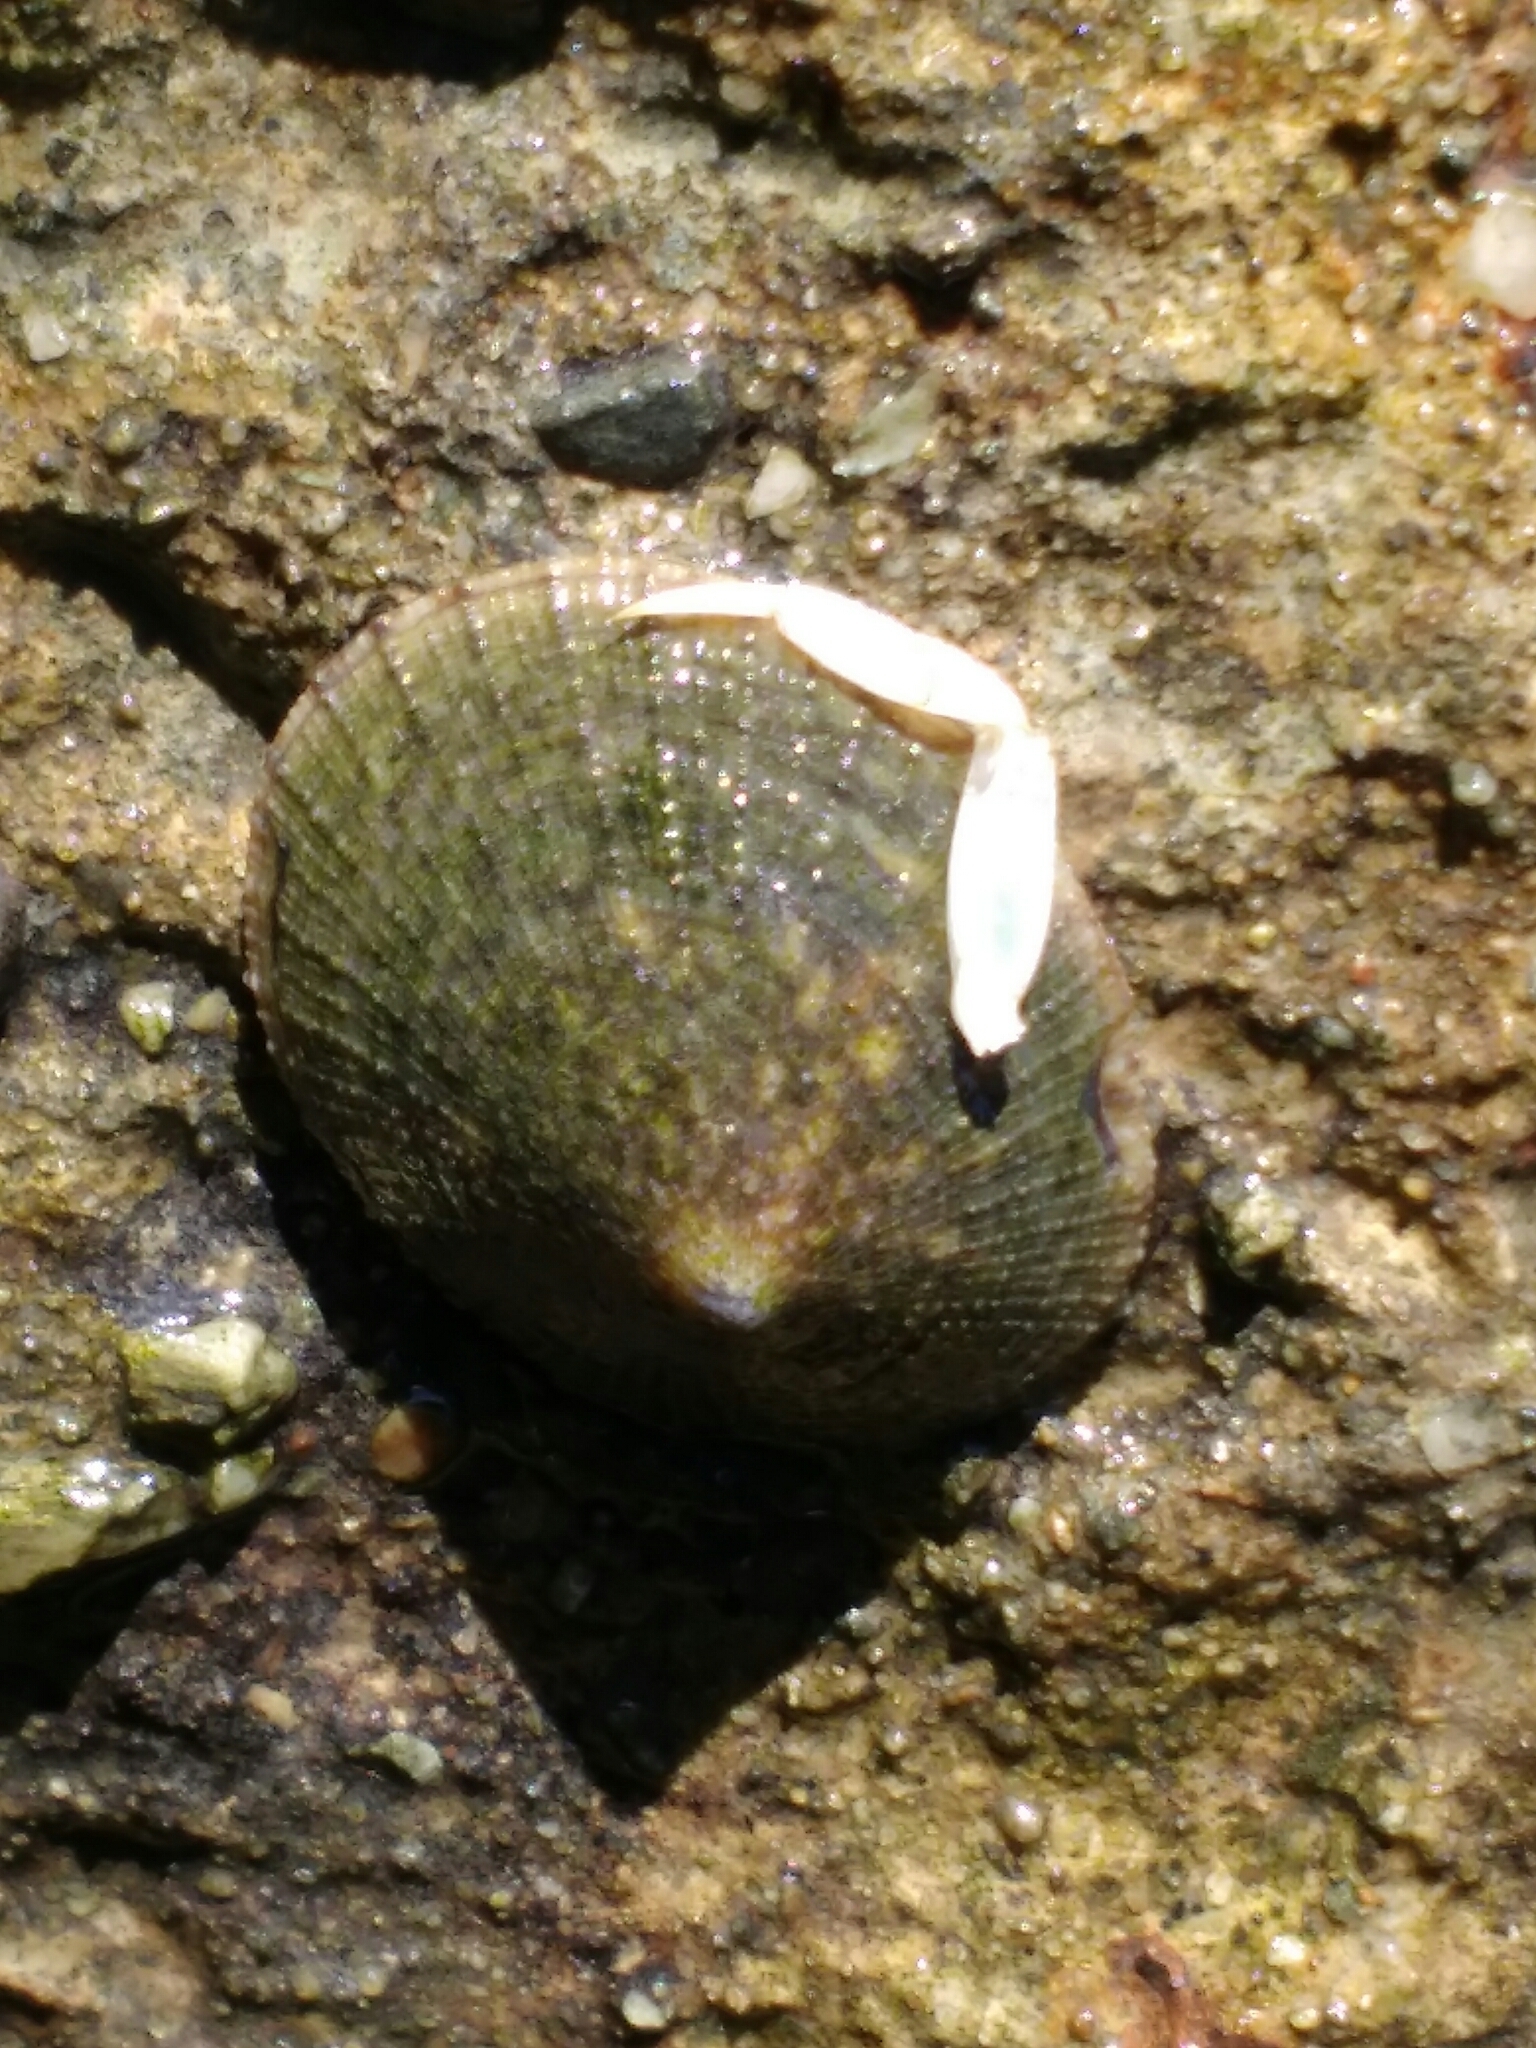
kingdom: Animalia
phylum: Mollusca
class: Gastropoda
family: Lottiidae
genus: Lottia
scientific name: Lottia limatula
